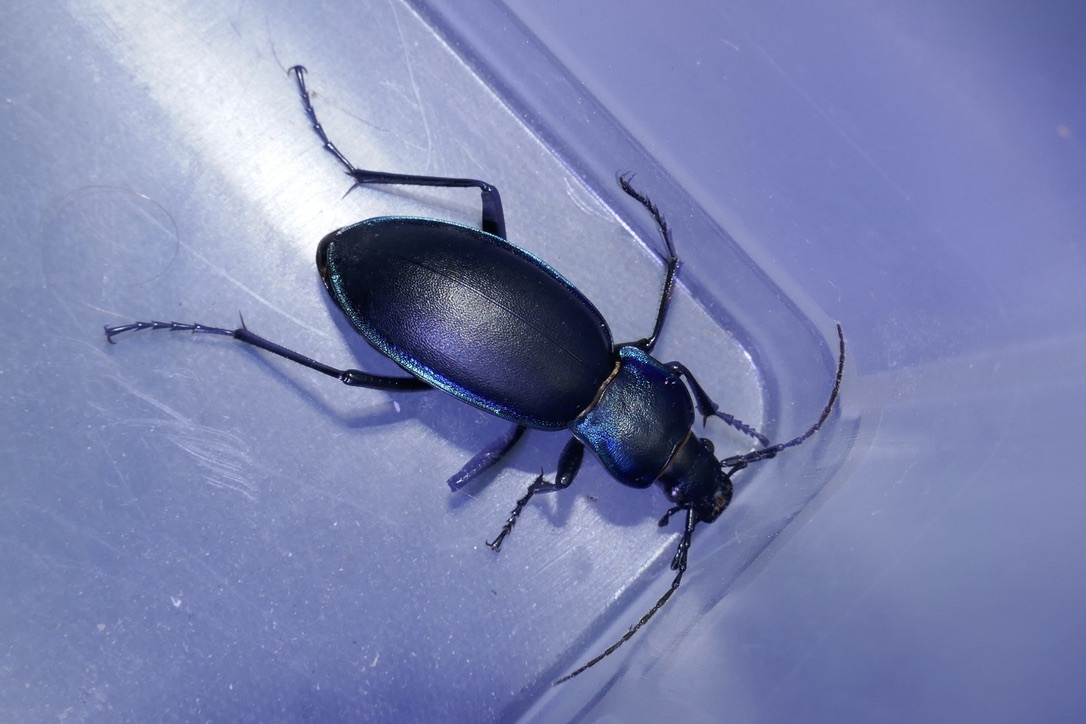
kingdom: Animalia
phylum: Arthropoda
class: Insecta
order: Coleoptera
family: Carabidae
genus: Carabus
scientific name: Carabus violaceus
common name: Violet ground beetle
